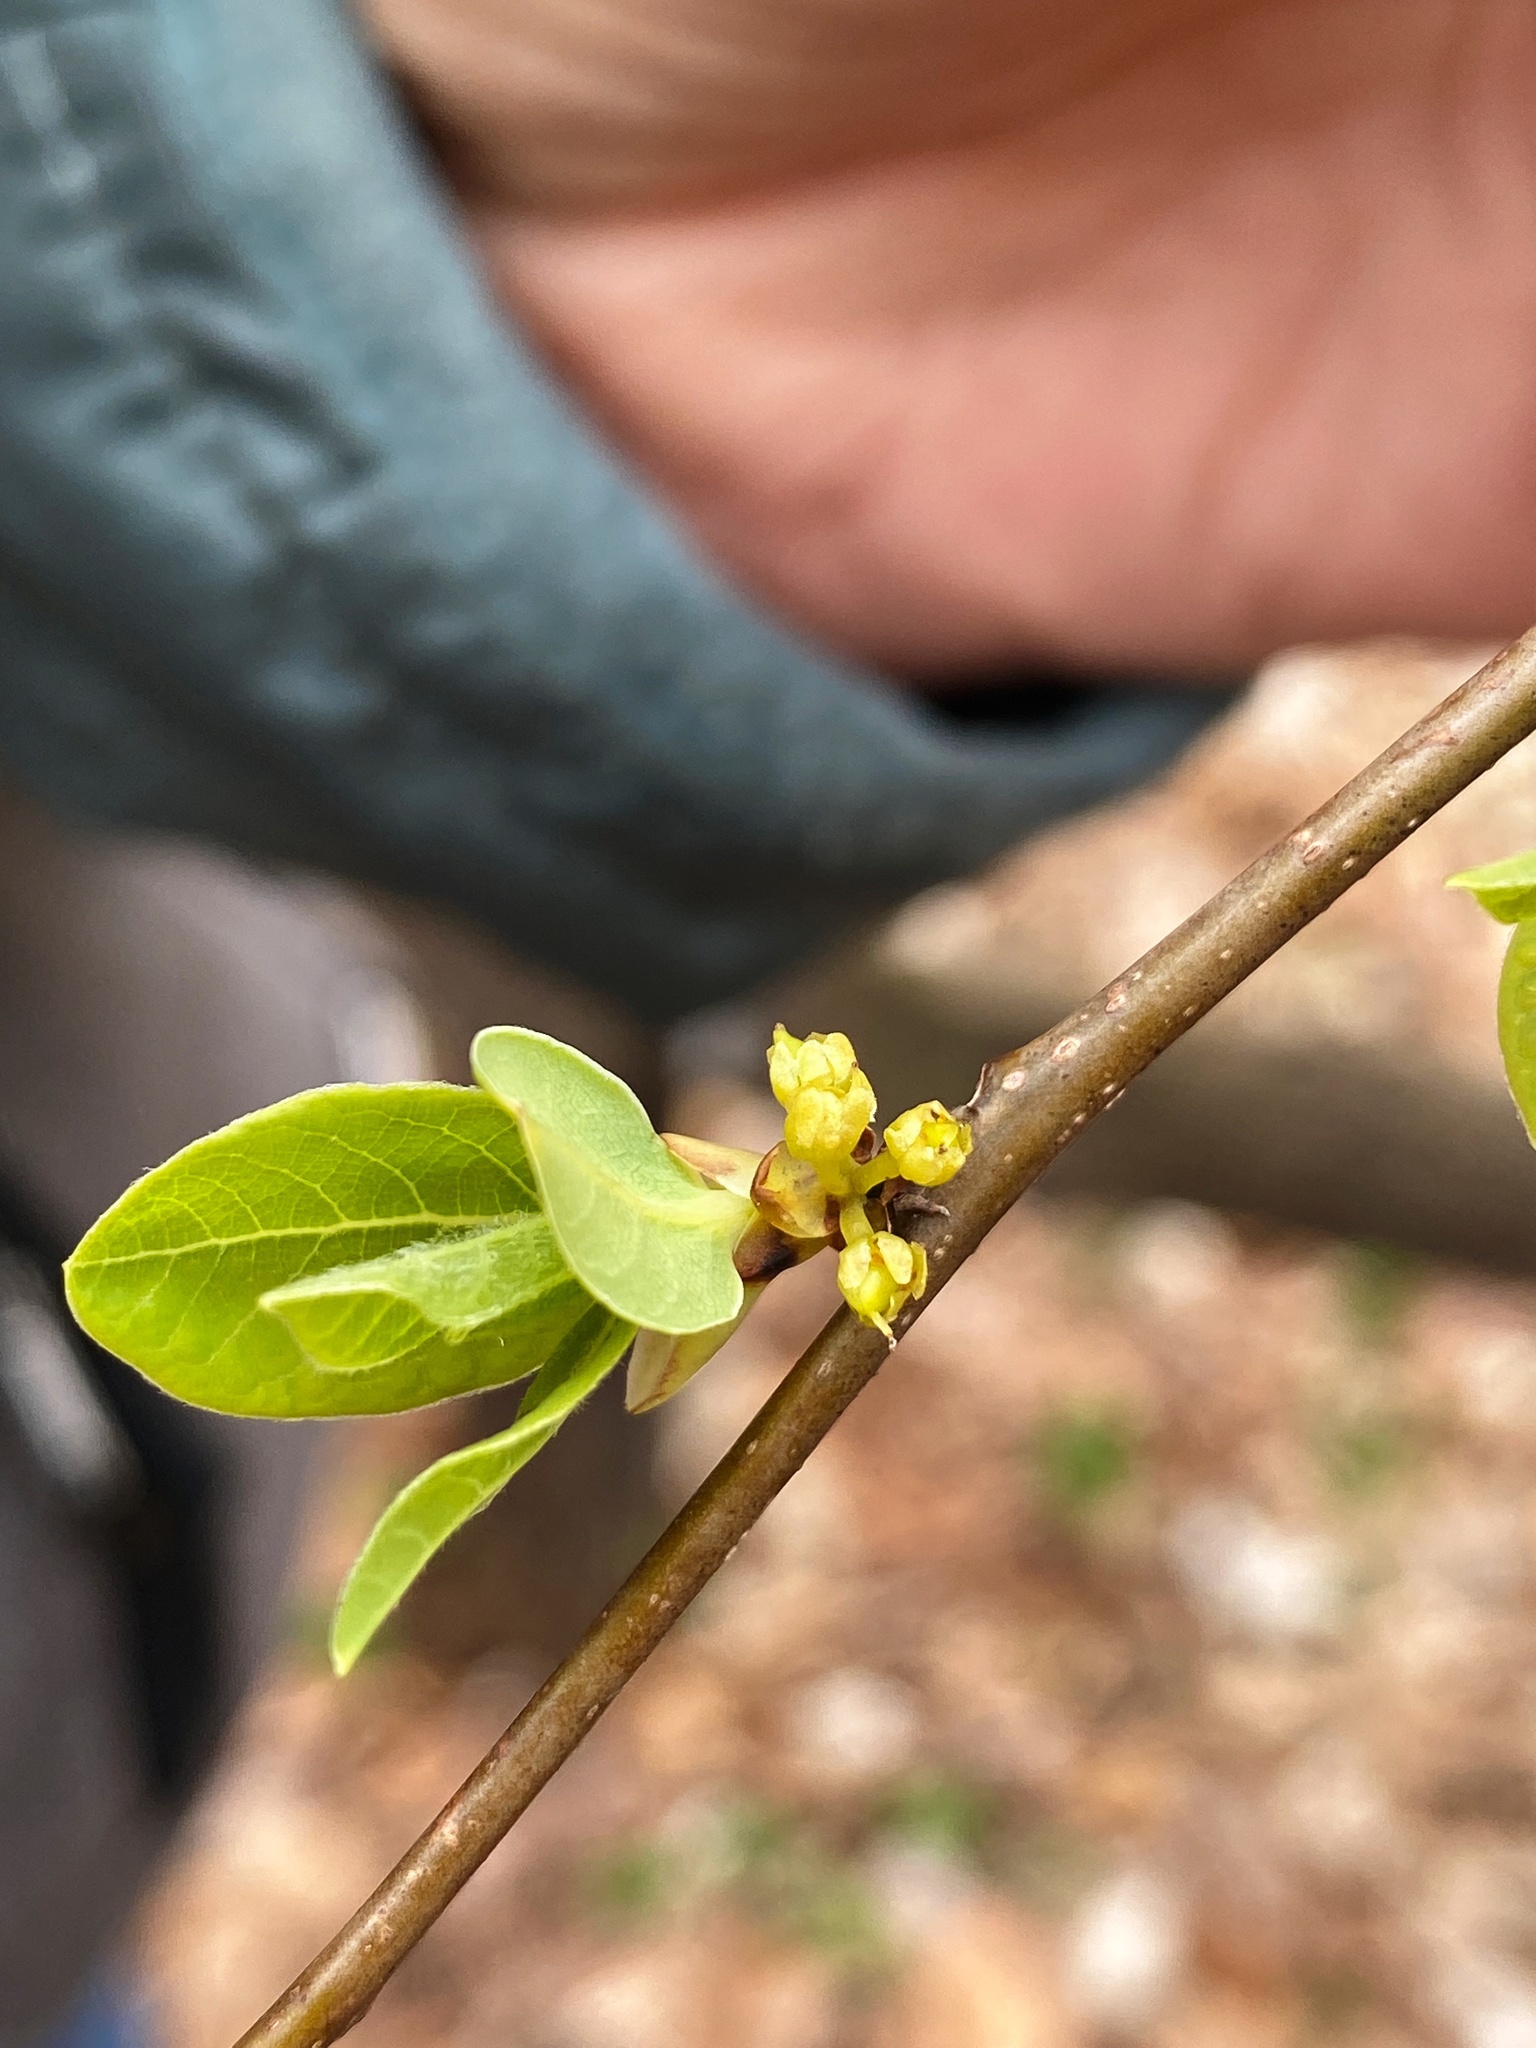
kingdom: Plantae
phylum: Tracheophyta
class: Magnoliopsida
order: Laurales
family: Lauraceae
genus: Lindera
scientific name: Lindera benzoin
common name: Spicebush
